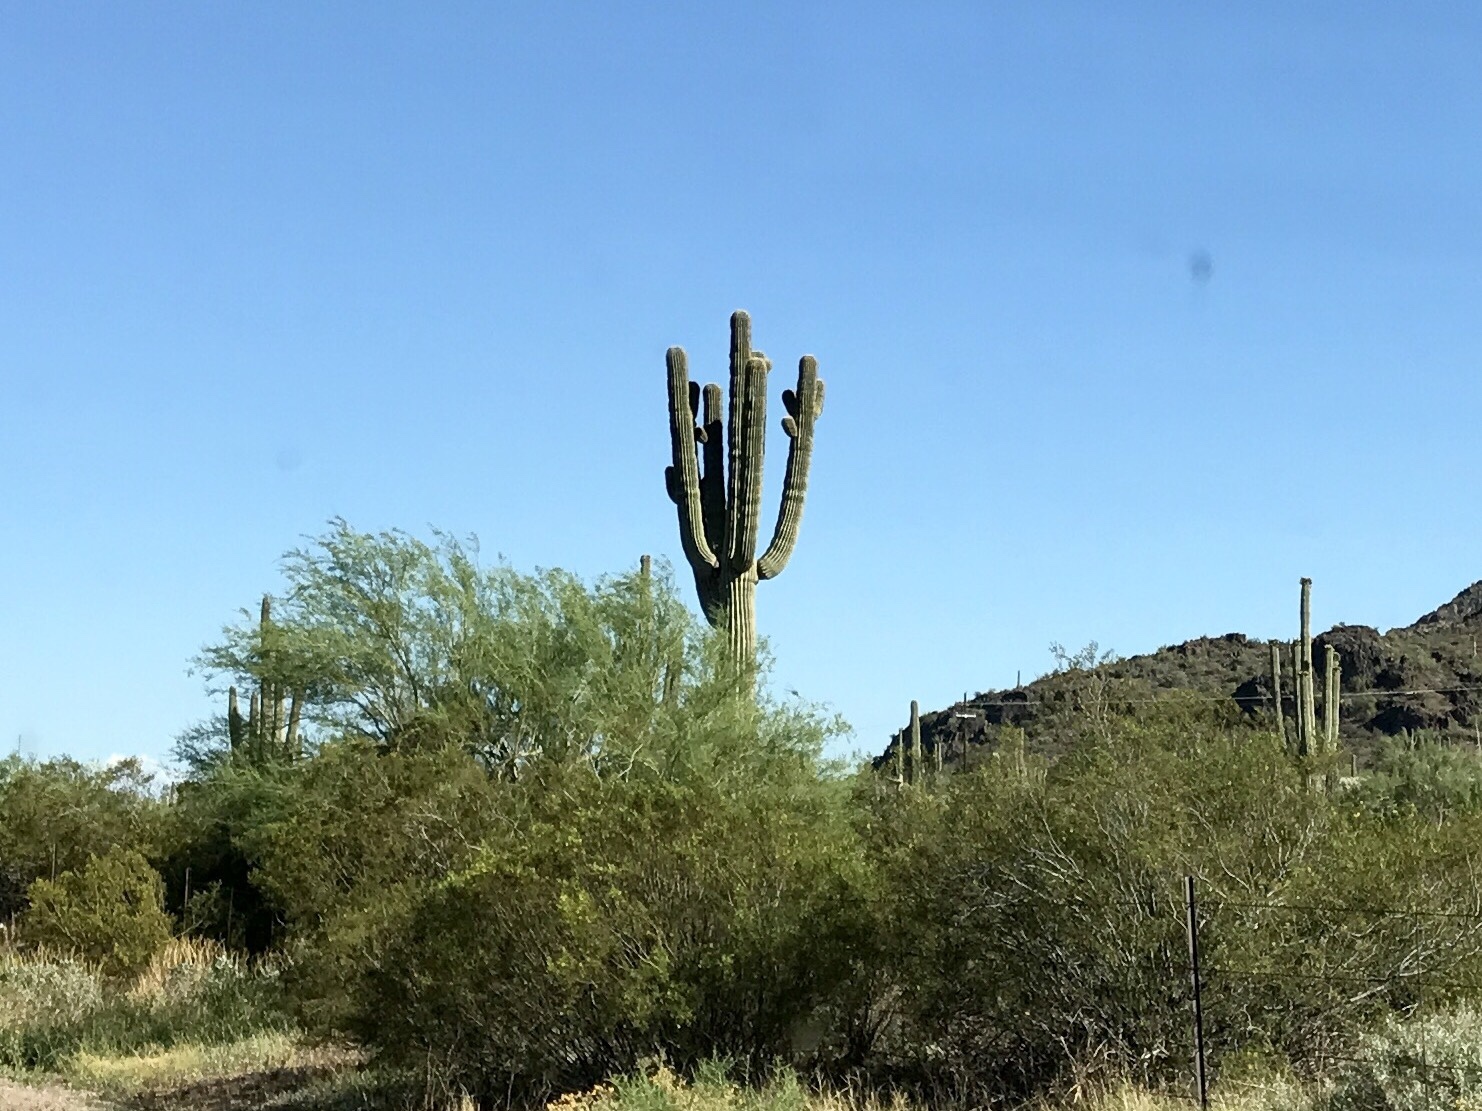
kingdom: Plantae
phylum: Tracheophyta
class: Magnoliopsida
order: Caryophyllales
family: Cactaceae
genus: Carnegiea
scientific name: Carnegiea gigantea
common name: Saguaro
